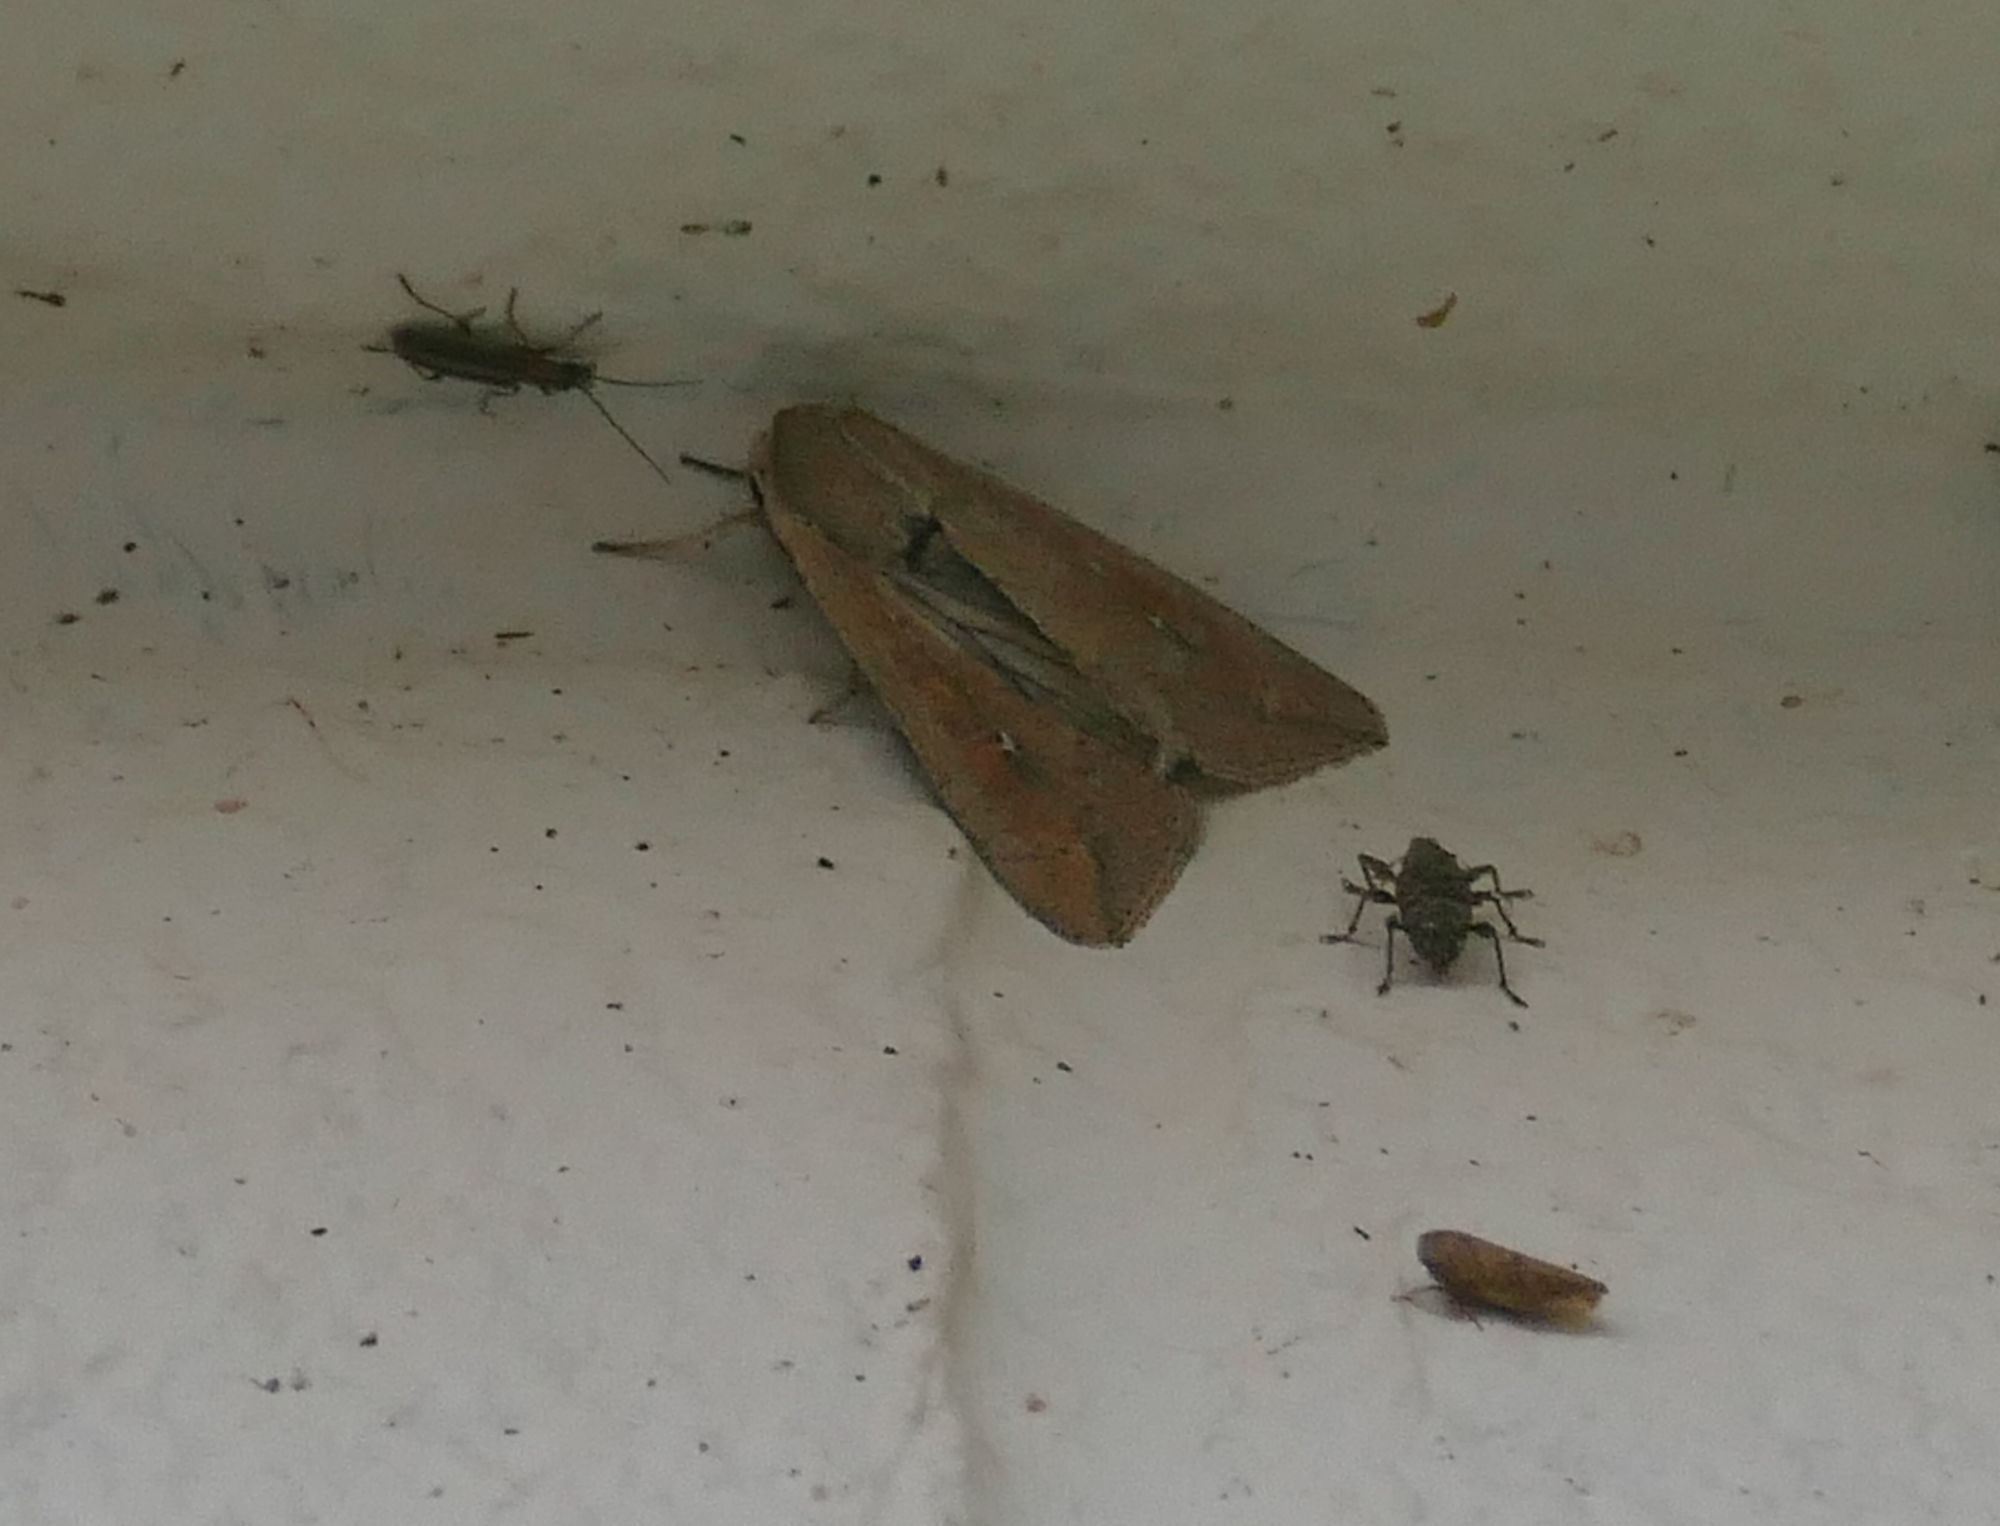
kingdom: Animalia
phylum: Arthropoda
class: Insecta
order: Lepidoptera
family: Noctuidae
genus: Mythimna
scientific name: Mythimna unipuncta
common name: White-speck
